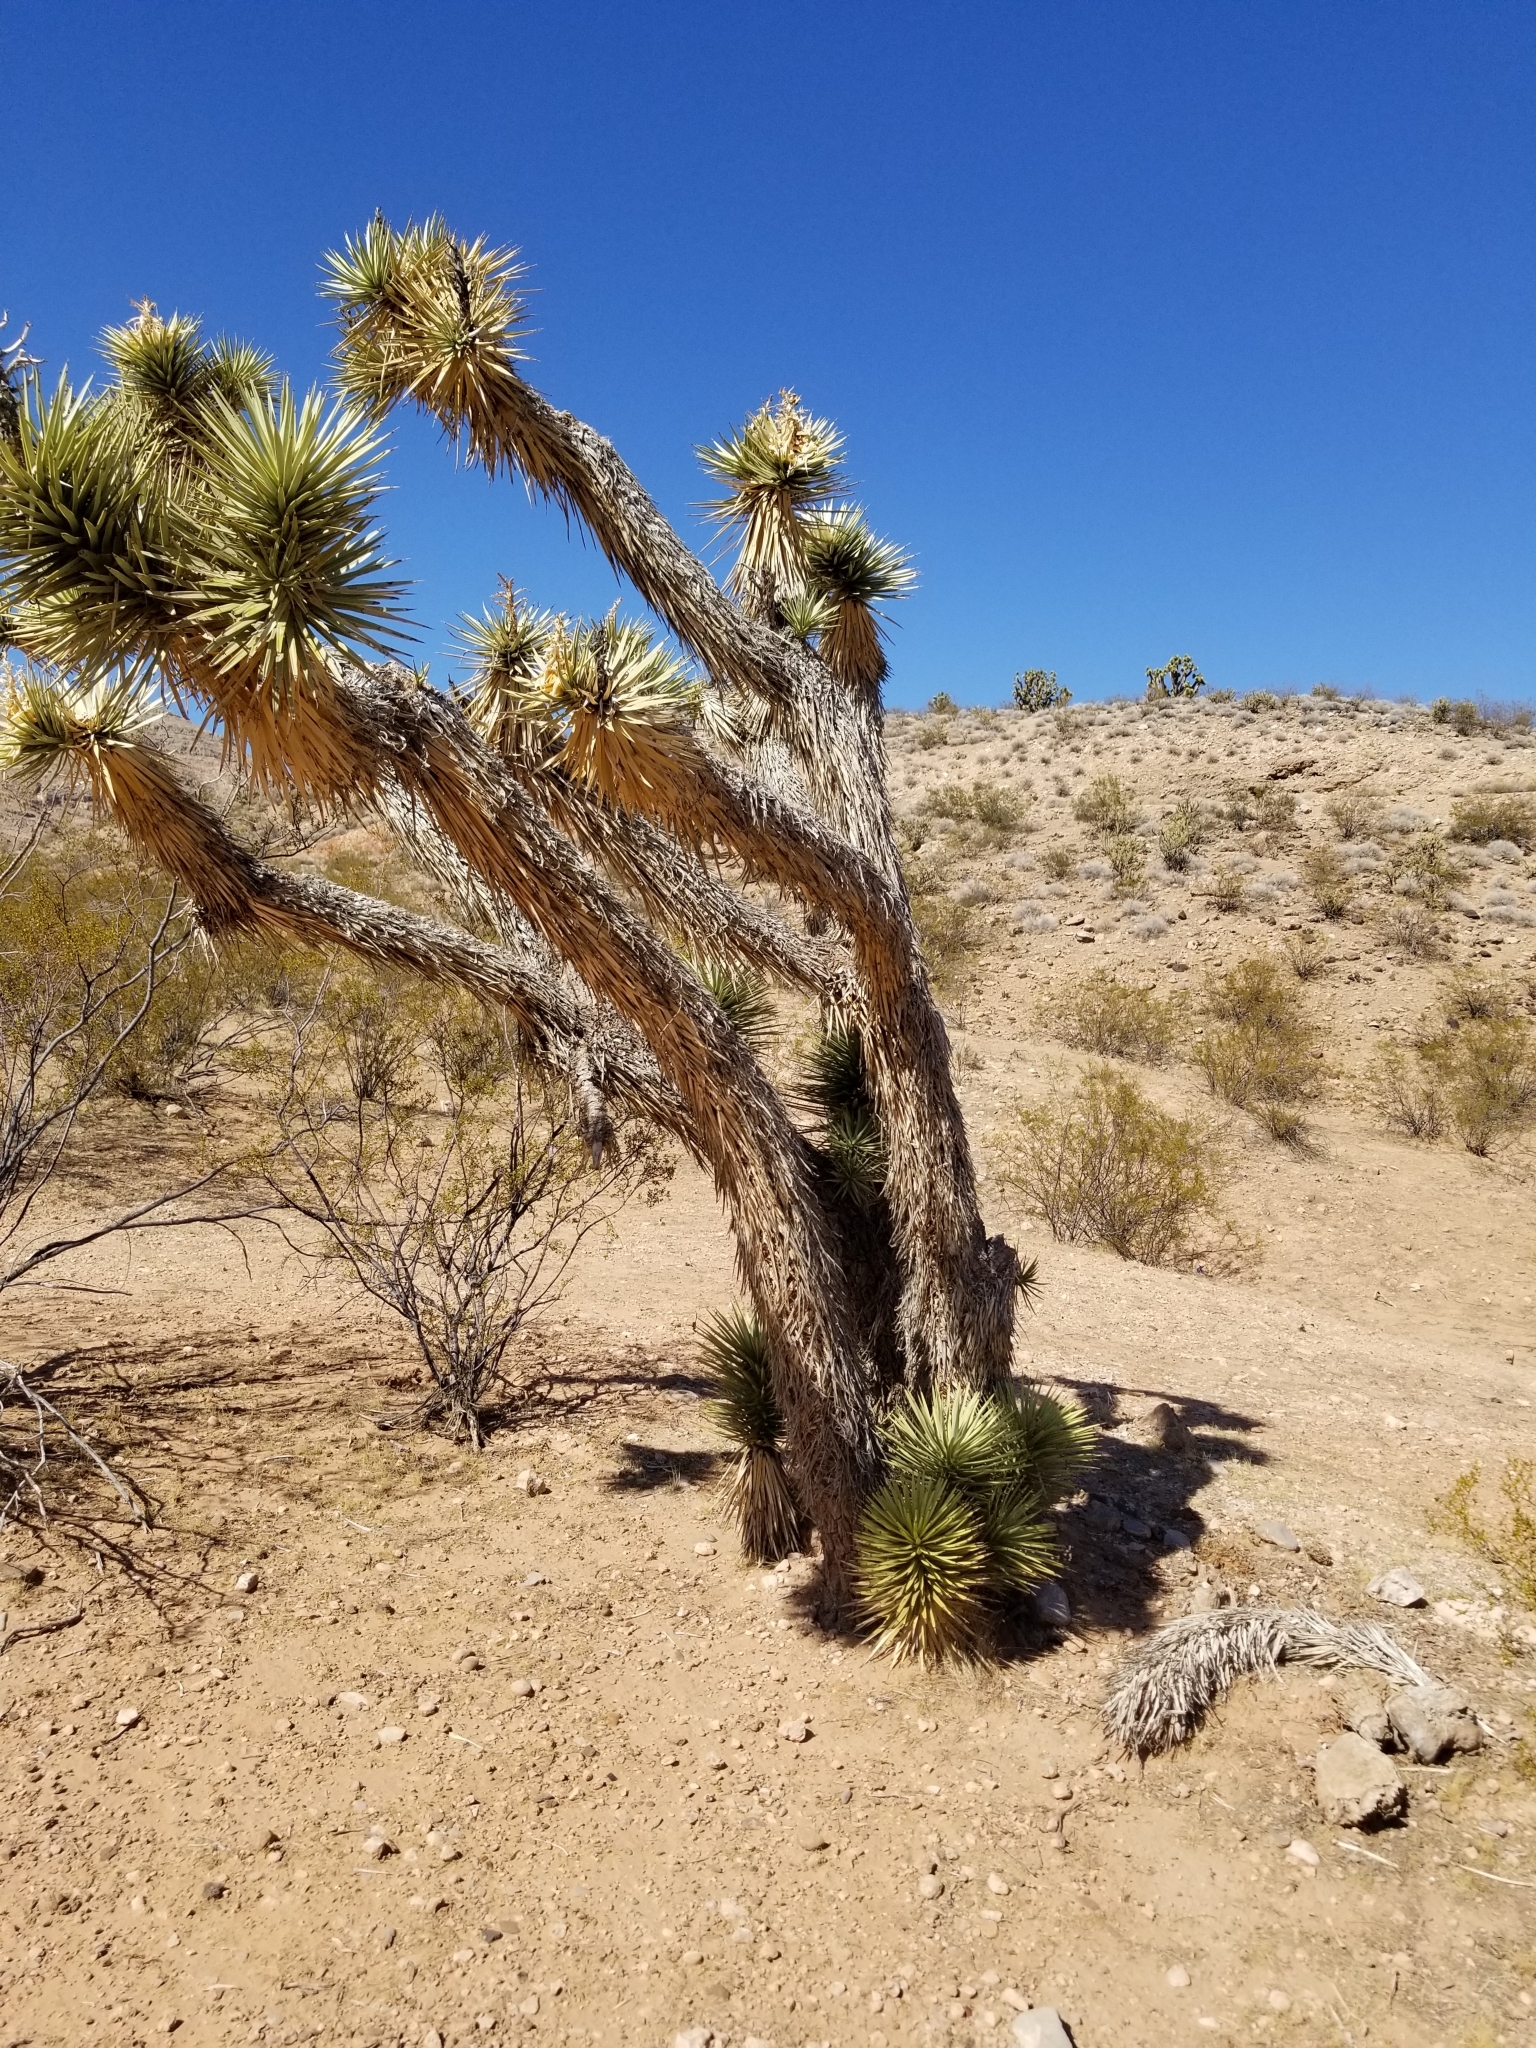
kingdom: Plantae
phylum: Tracheophyta
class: Liliopsida
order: Asparagales
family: Asparagaceae
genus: Yucca
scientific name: Yucca brevifolia
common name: Joshua tree
